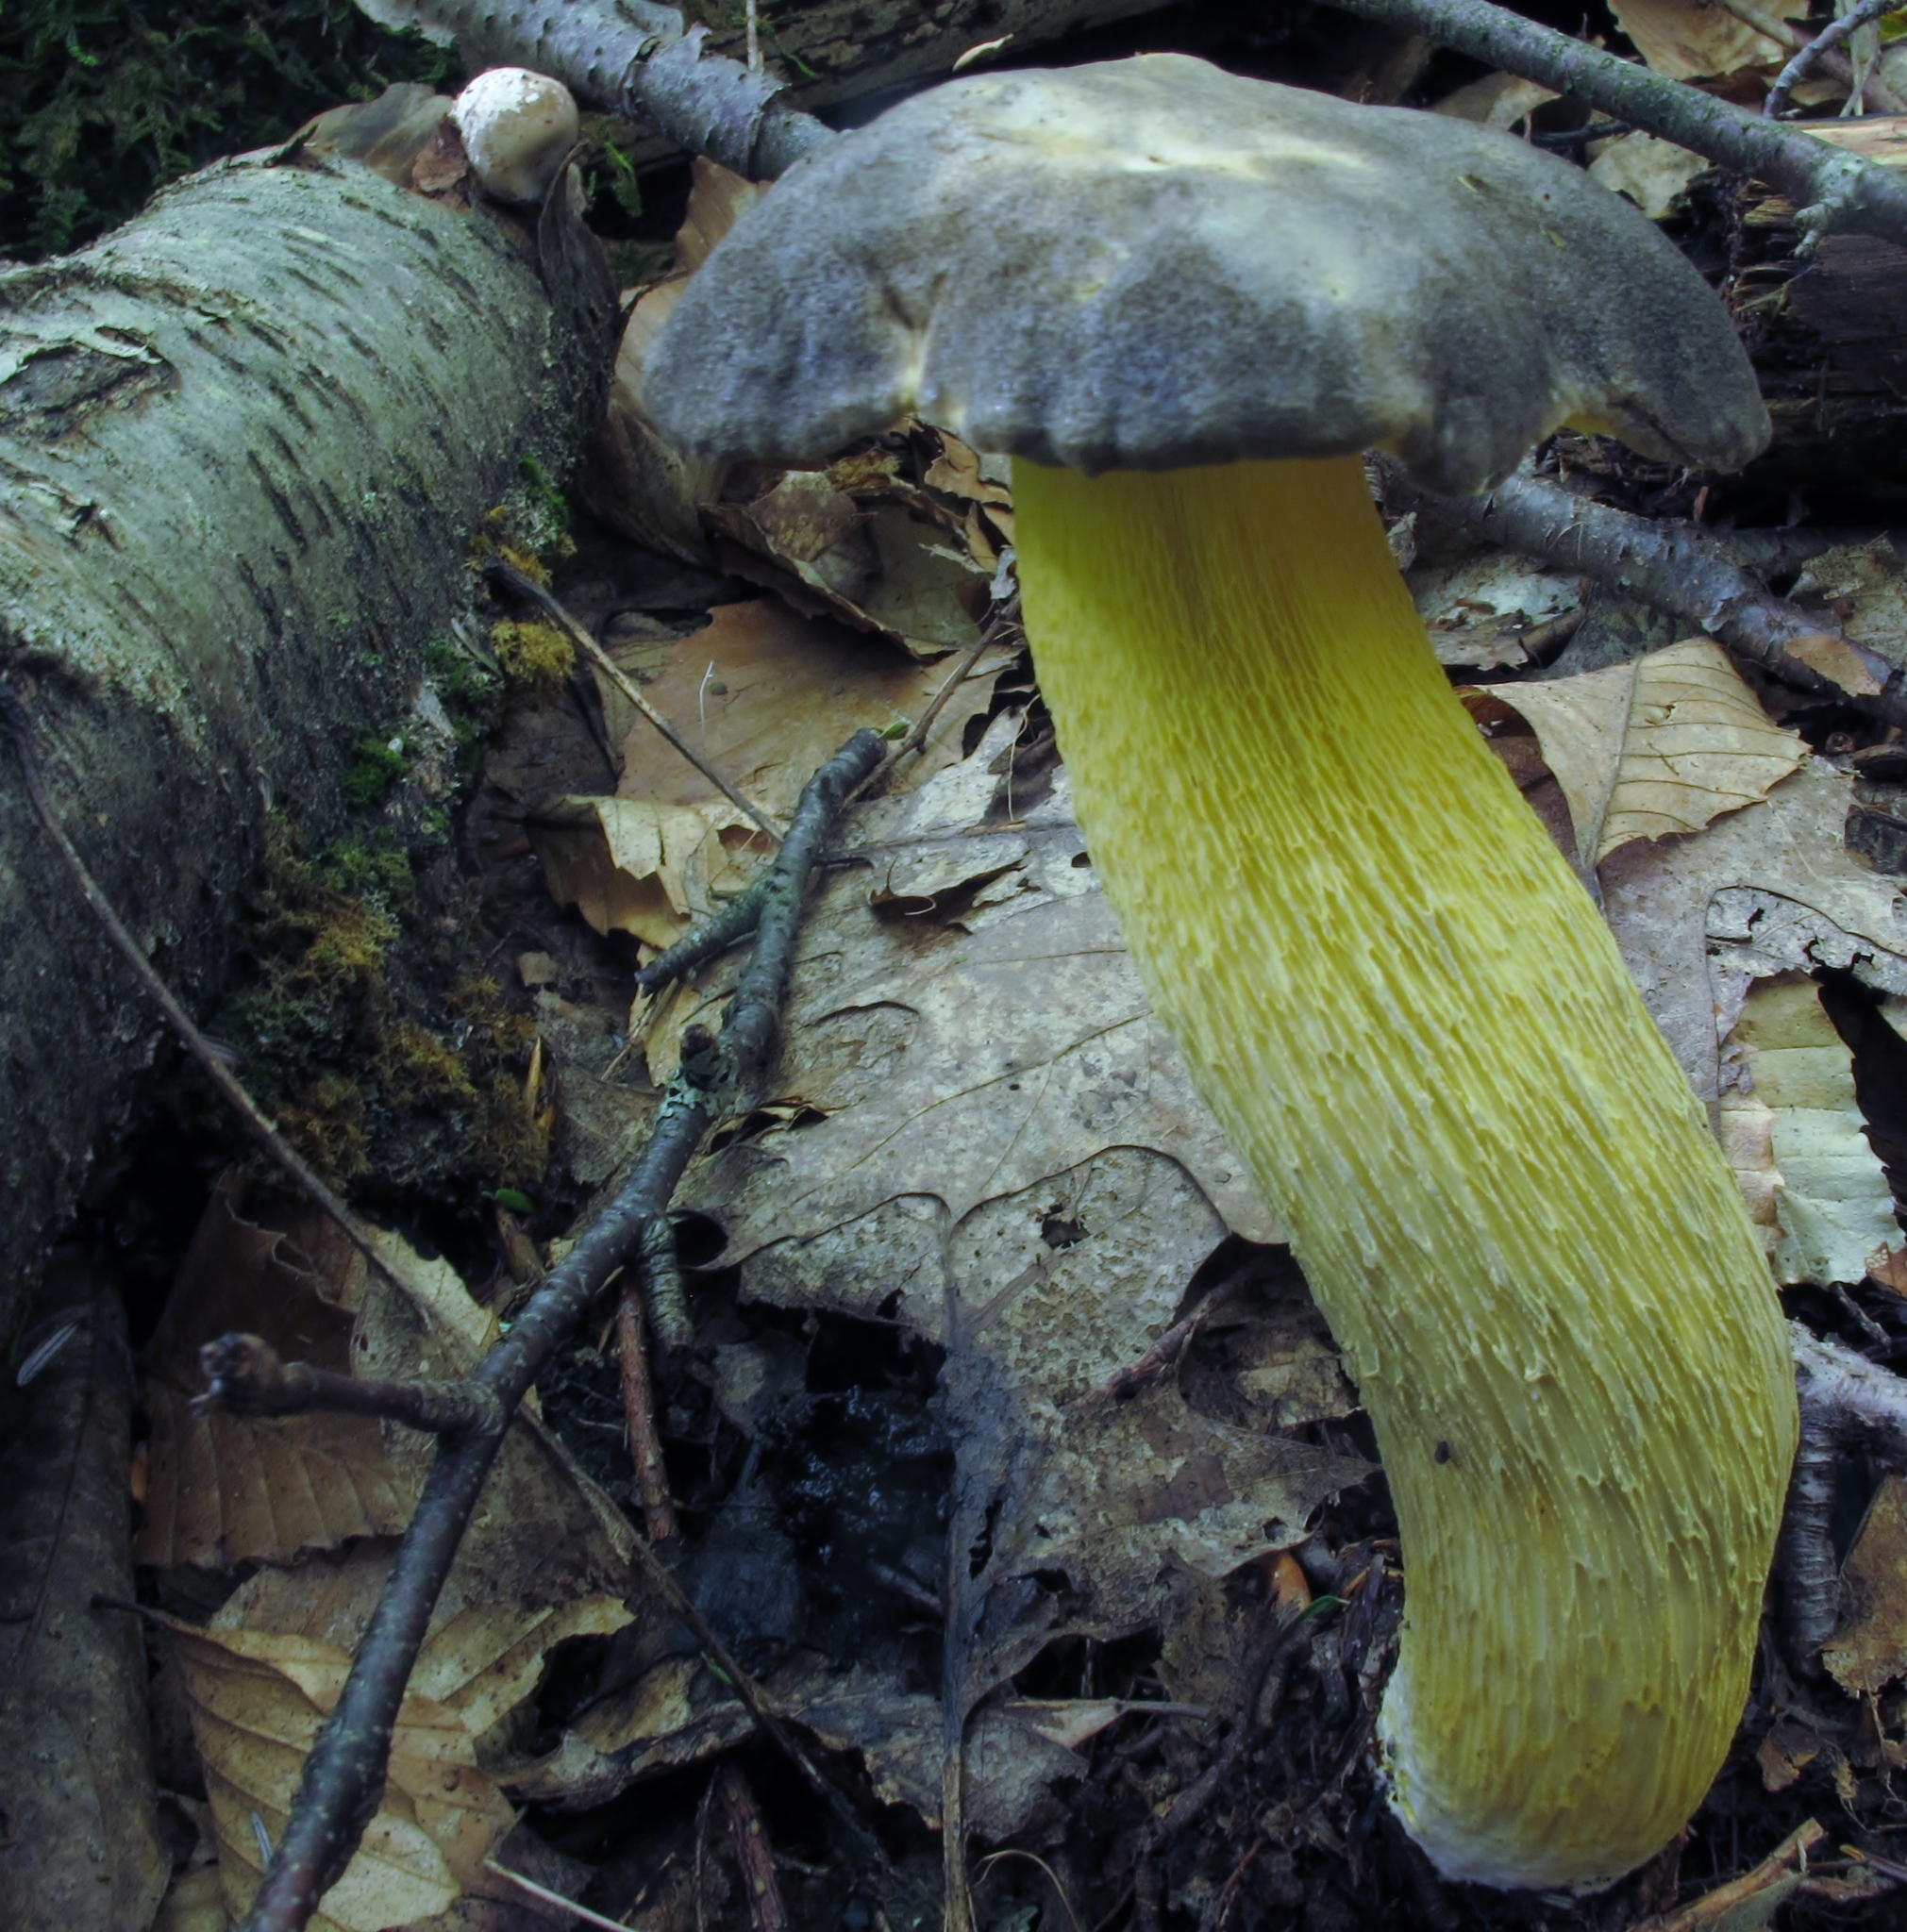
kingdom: Fungi
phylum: Basidiomycota
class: Agaricomycetes
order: Boletales
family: Boletaceae
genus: Retiboletus
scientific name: Retiboletus ornatipes
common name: Ornate-stalked bolete
